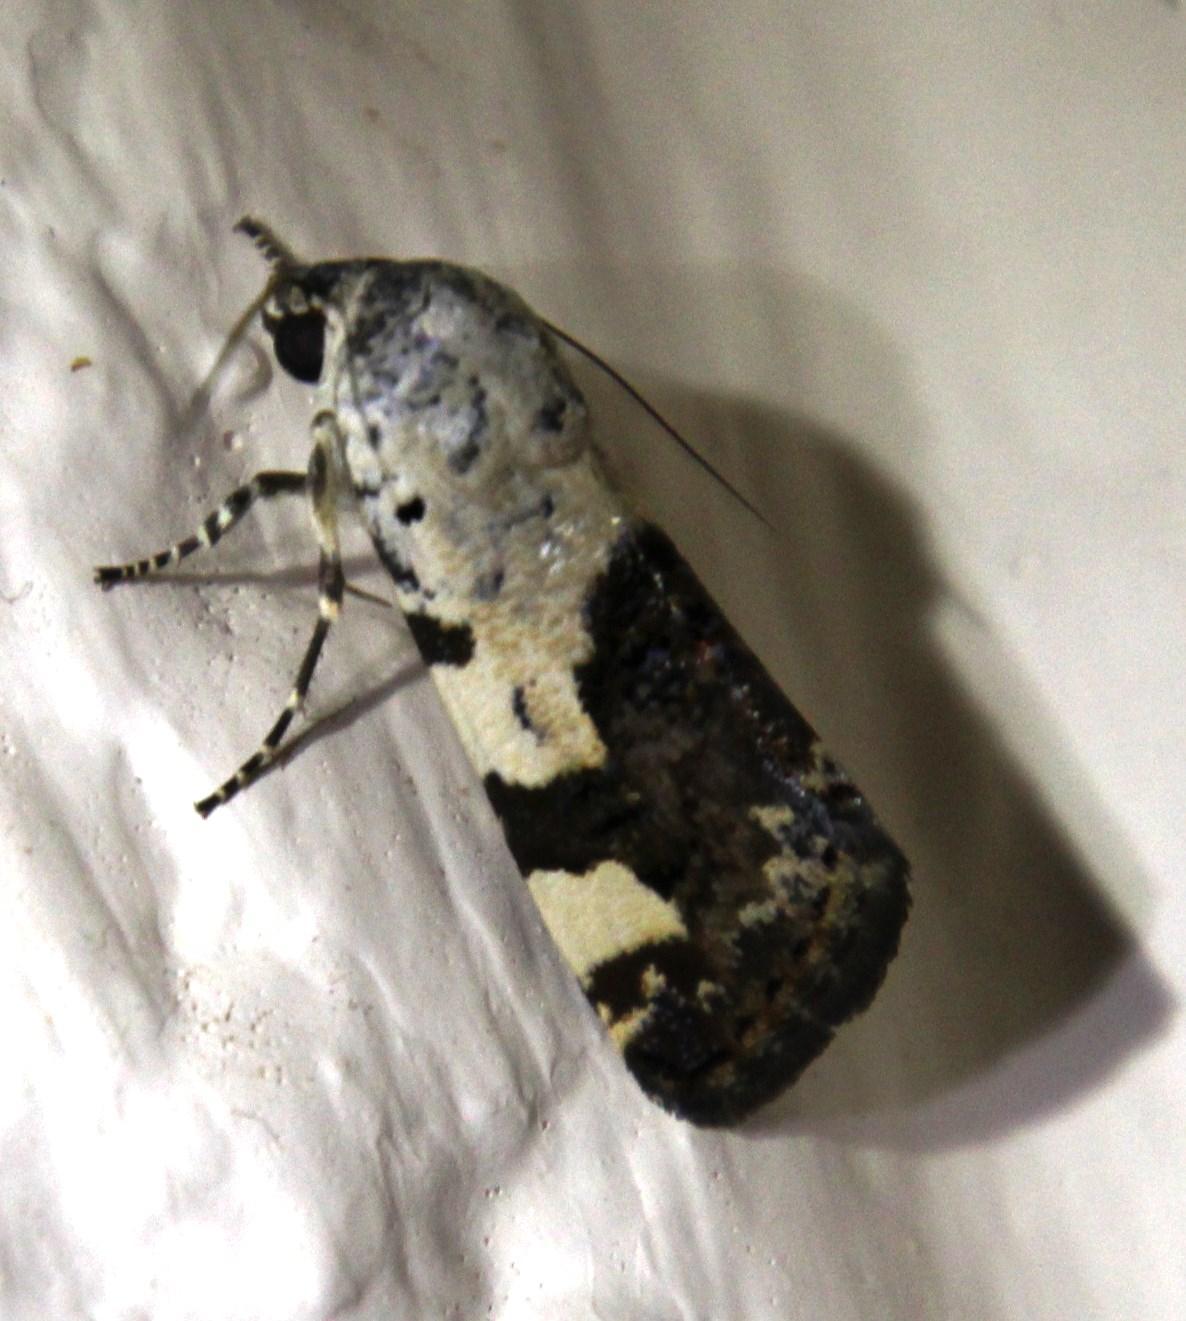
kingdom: Animalia
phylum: Arthropoda
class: Insecta
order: Lepidoptera
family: Noctuidae
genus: Acontia
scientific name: Acontia trychaenoides
